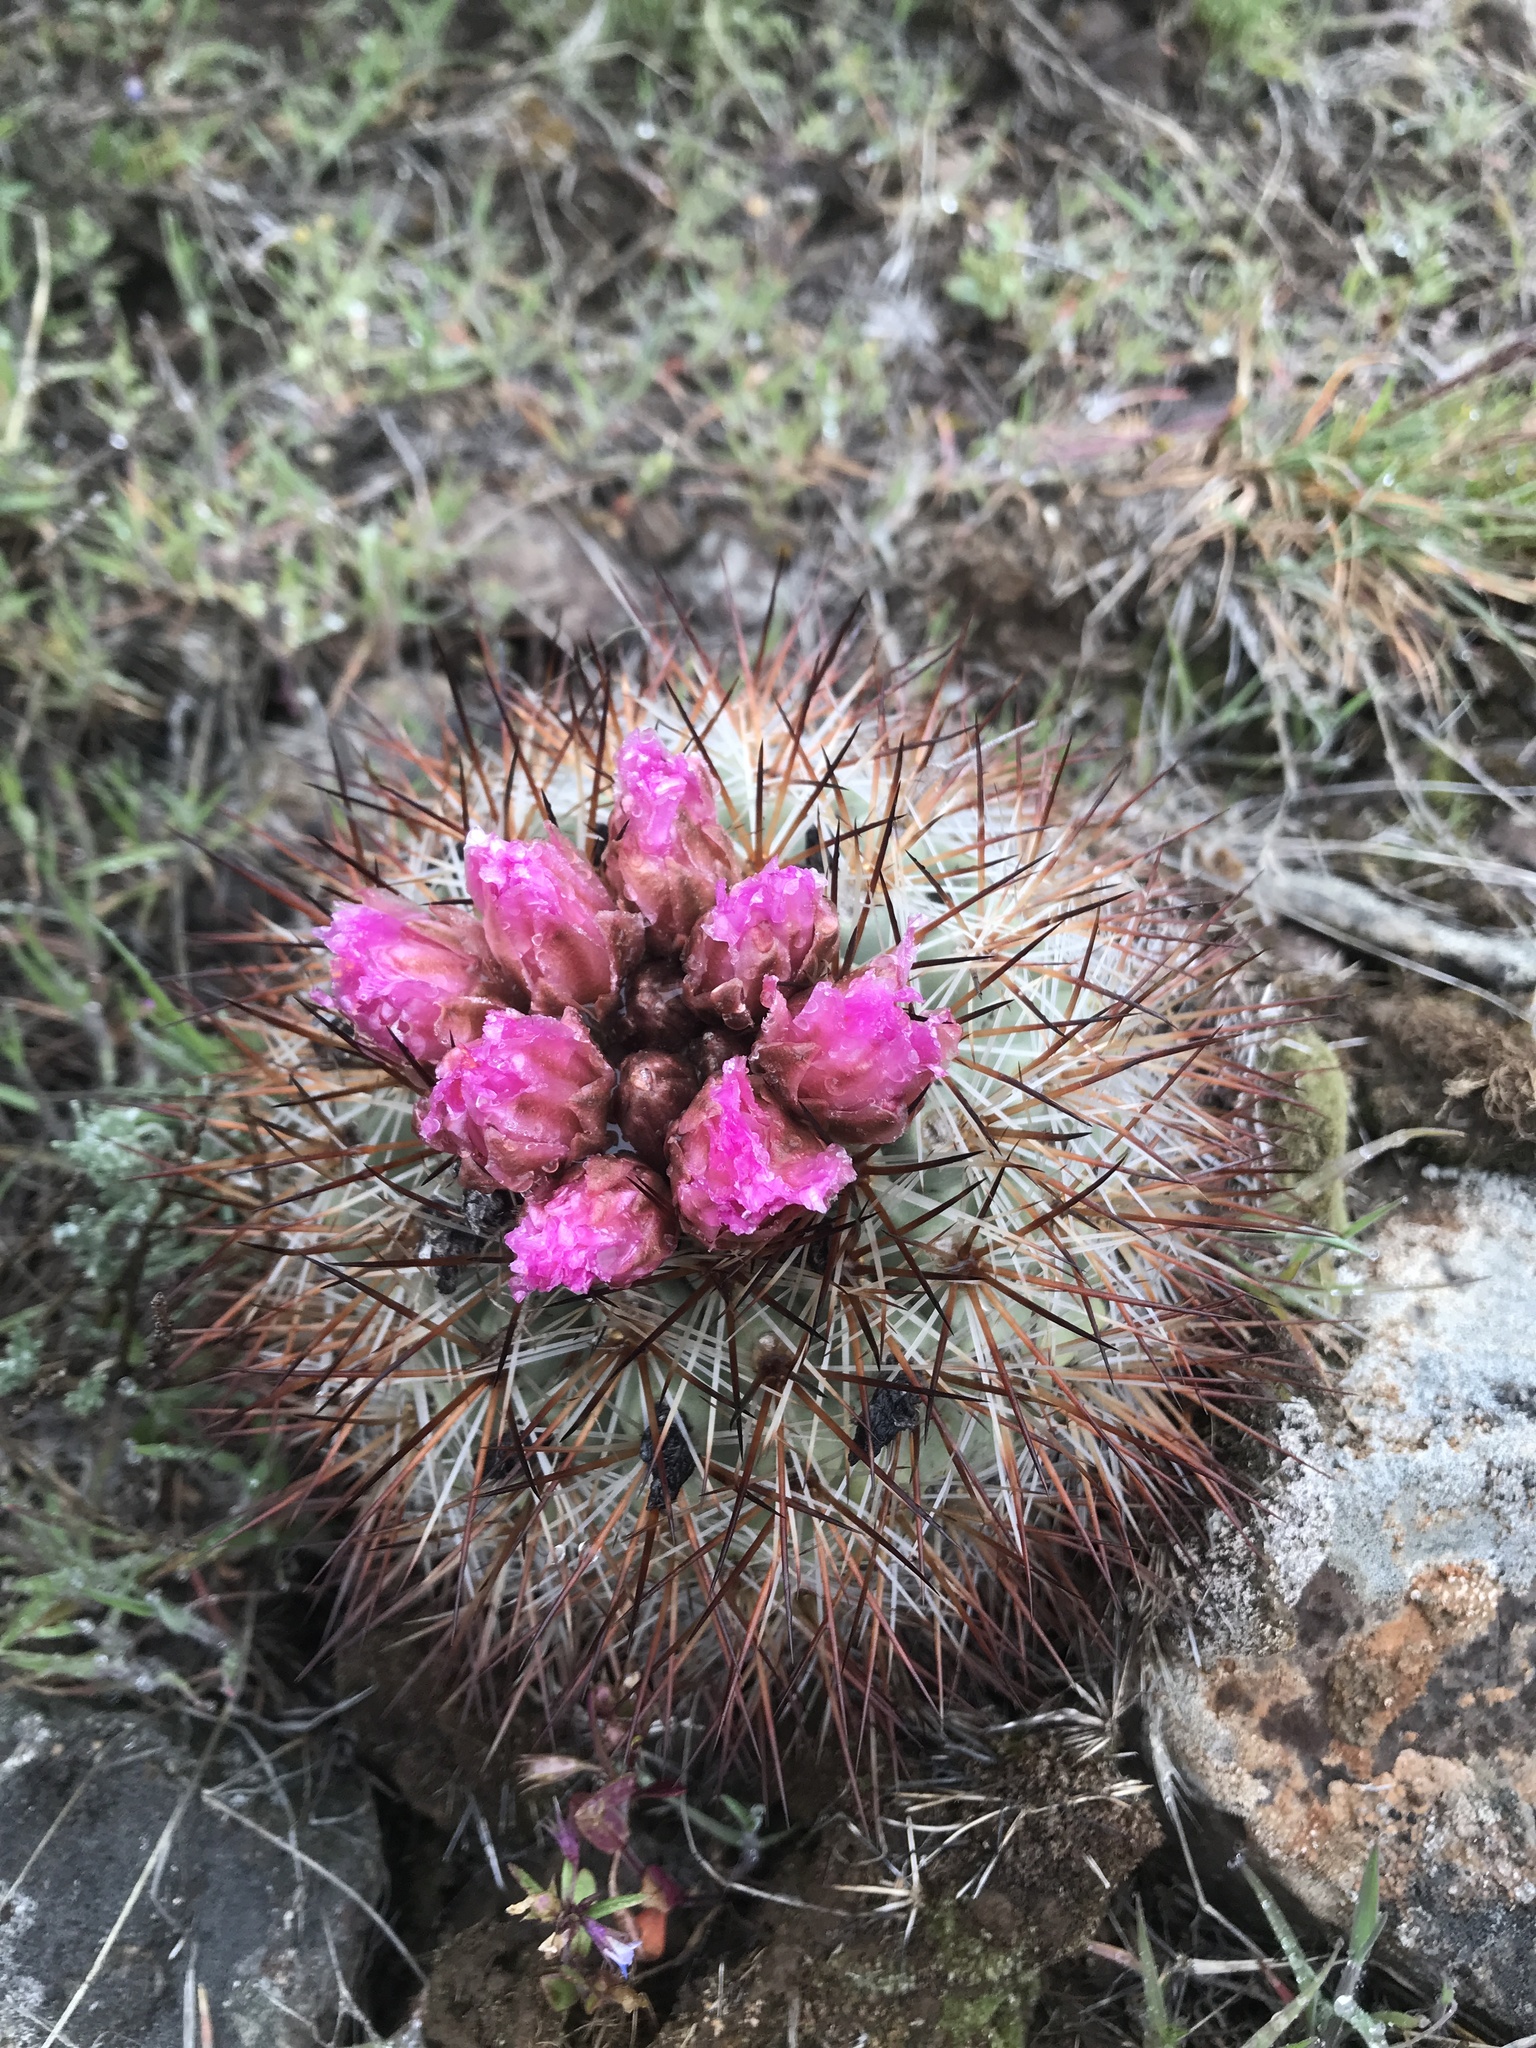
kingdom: Plantae
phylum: Tracheophyta
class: Magnoliopsida
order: Caryophyllales
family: Cactaceae
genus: Pediocactus
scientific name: Pediocactus nigrispinus
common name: Simpson's hedgehog cactus
